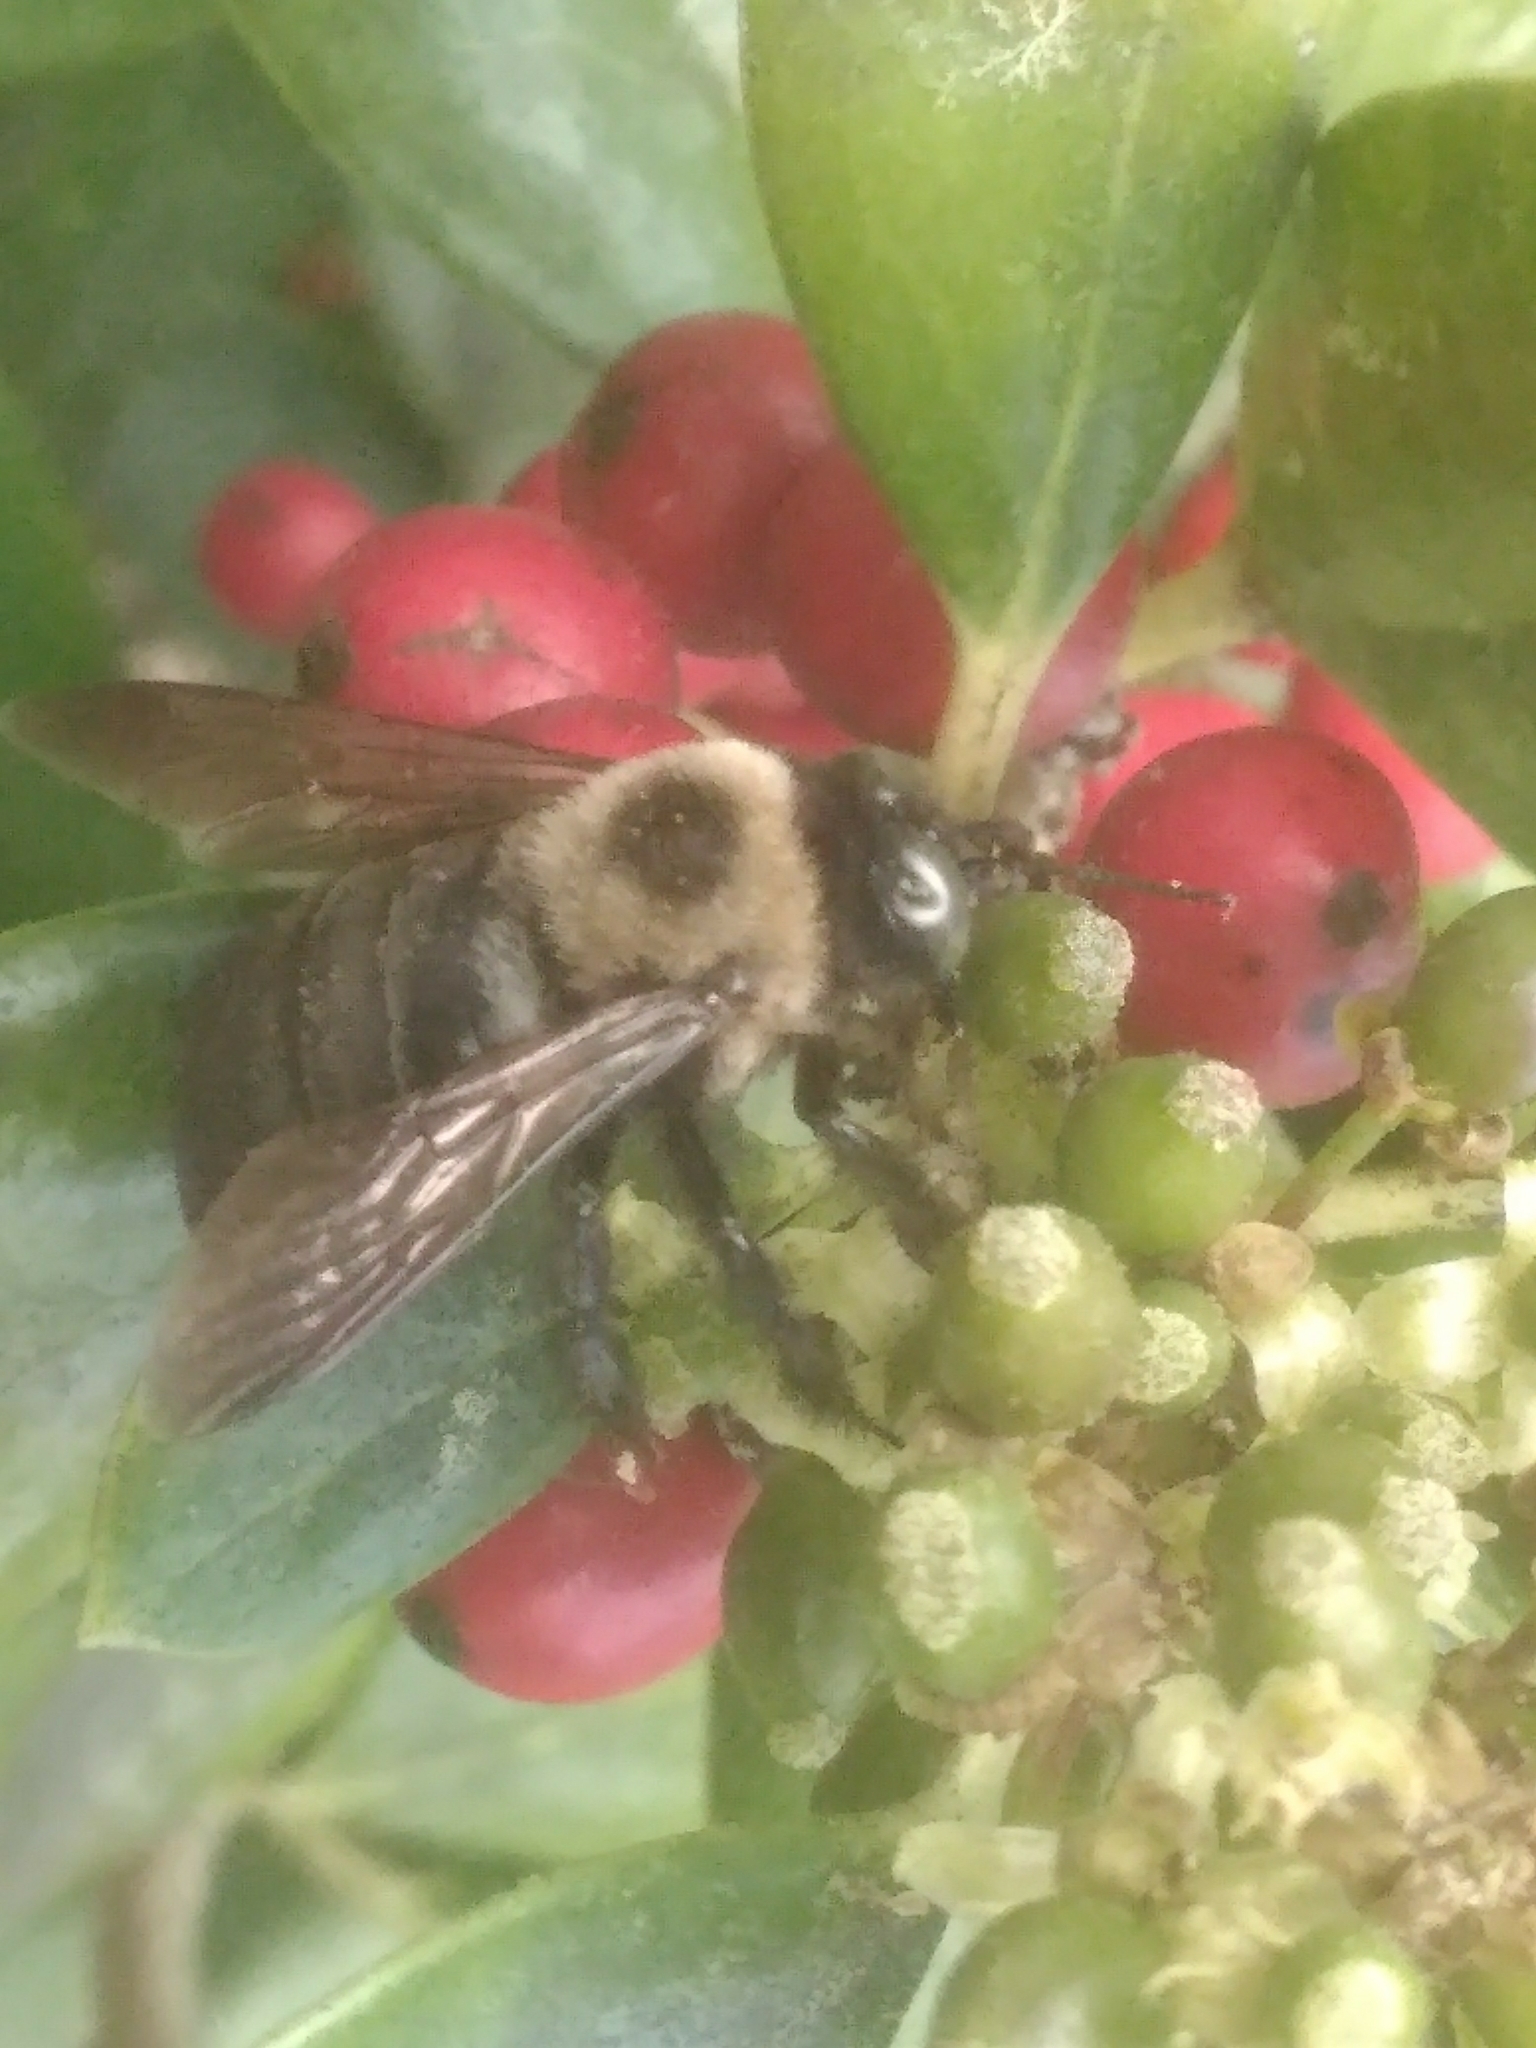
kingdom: Animalia
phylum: Arthropoda
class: Insecta
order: Hymenoptera
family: Apidae
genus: Xylocopa
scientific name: Xylocopa virginica
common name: Carpenter bee
